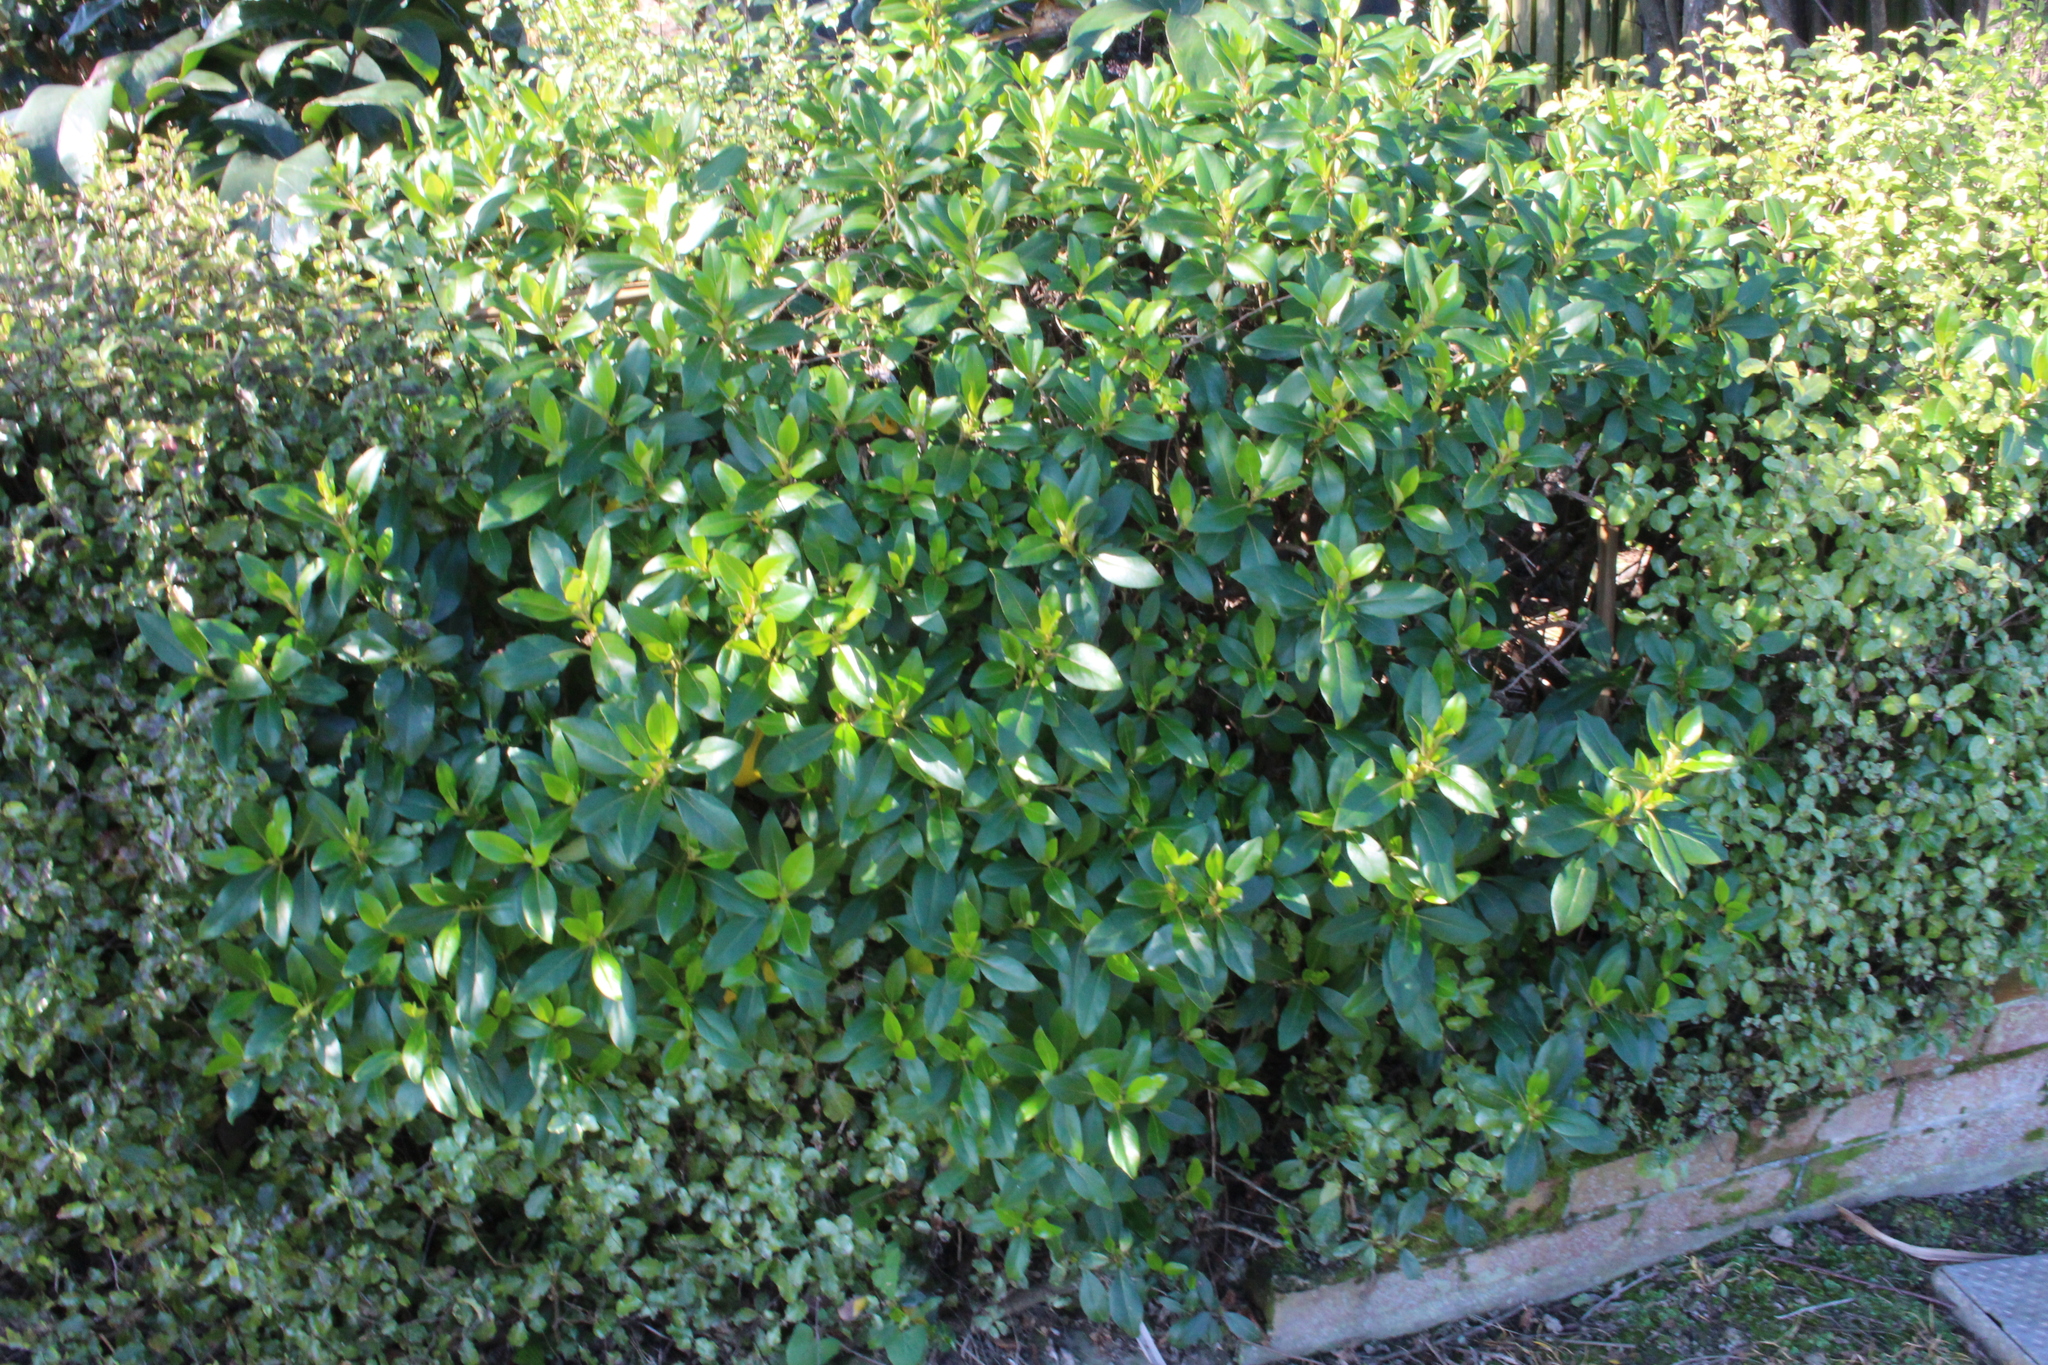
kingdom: Plantae
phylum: Tracheophyta
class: Magnoliopsida
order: Gentianales
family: Rubiaceae
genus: Coprosma
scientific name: Coprosma robusta
